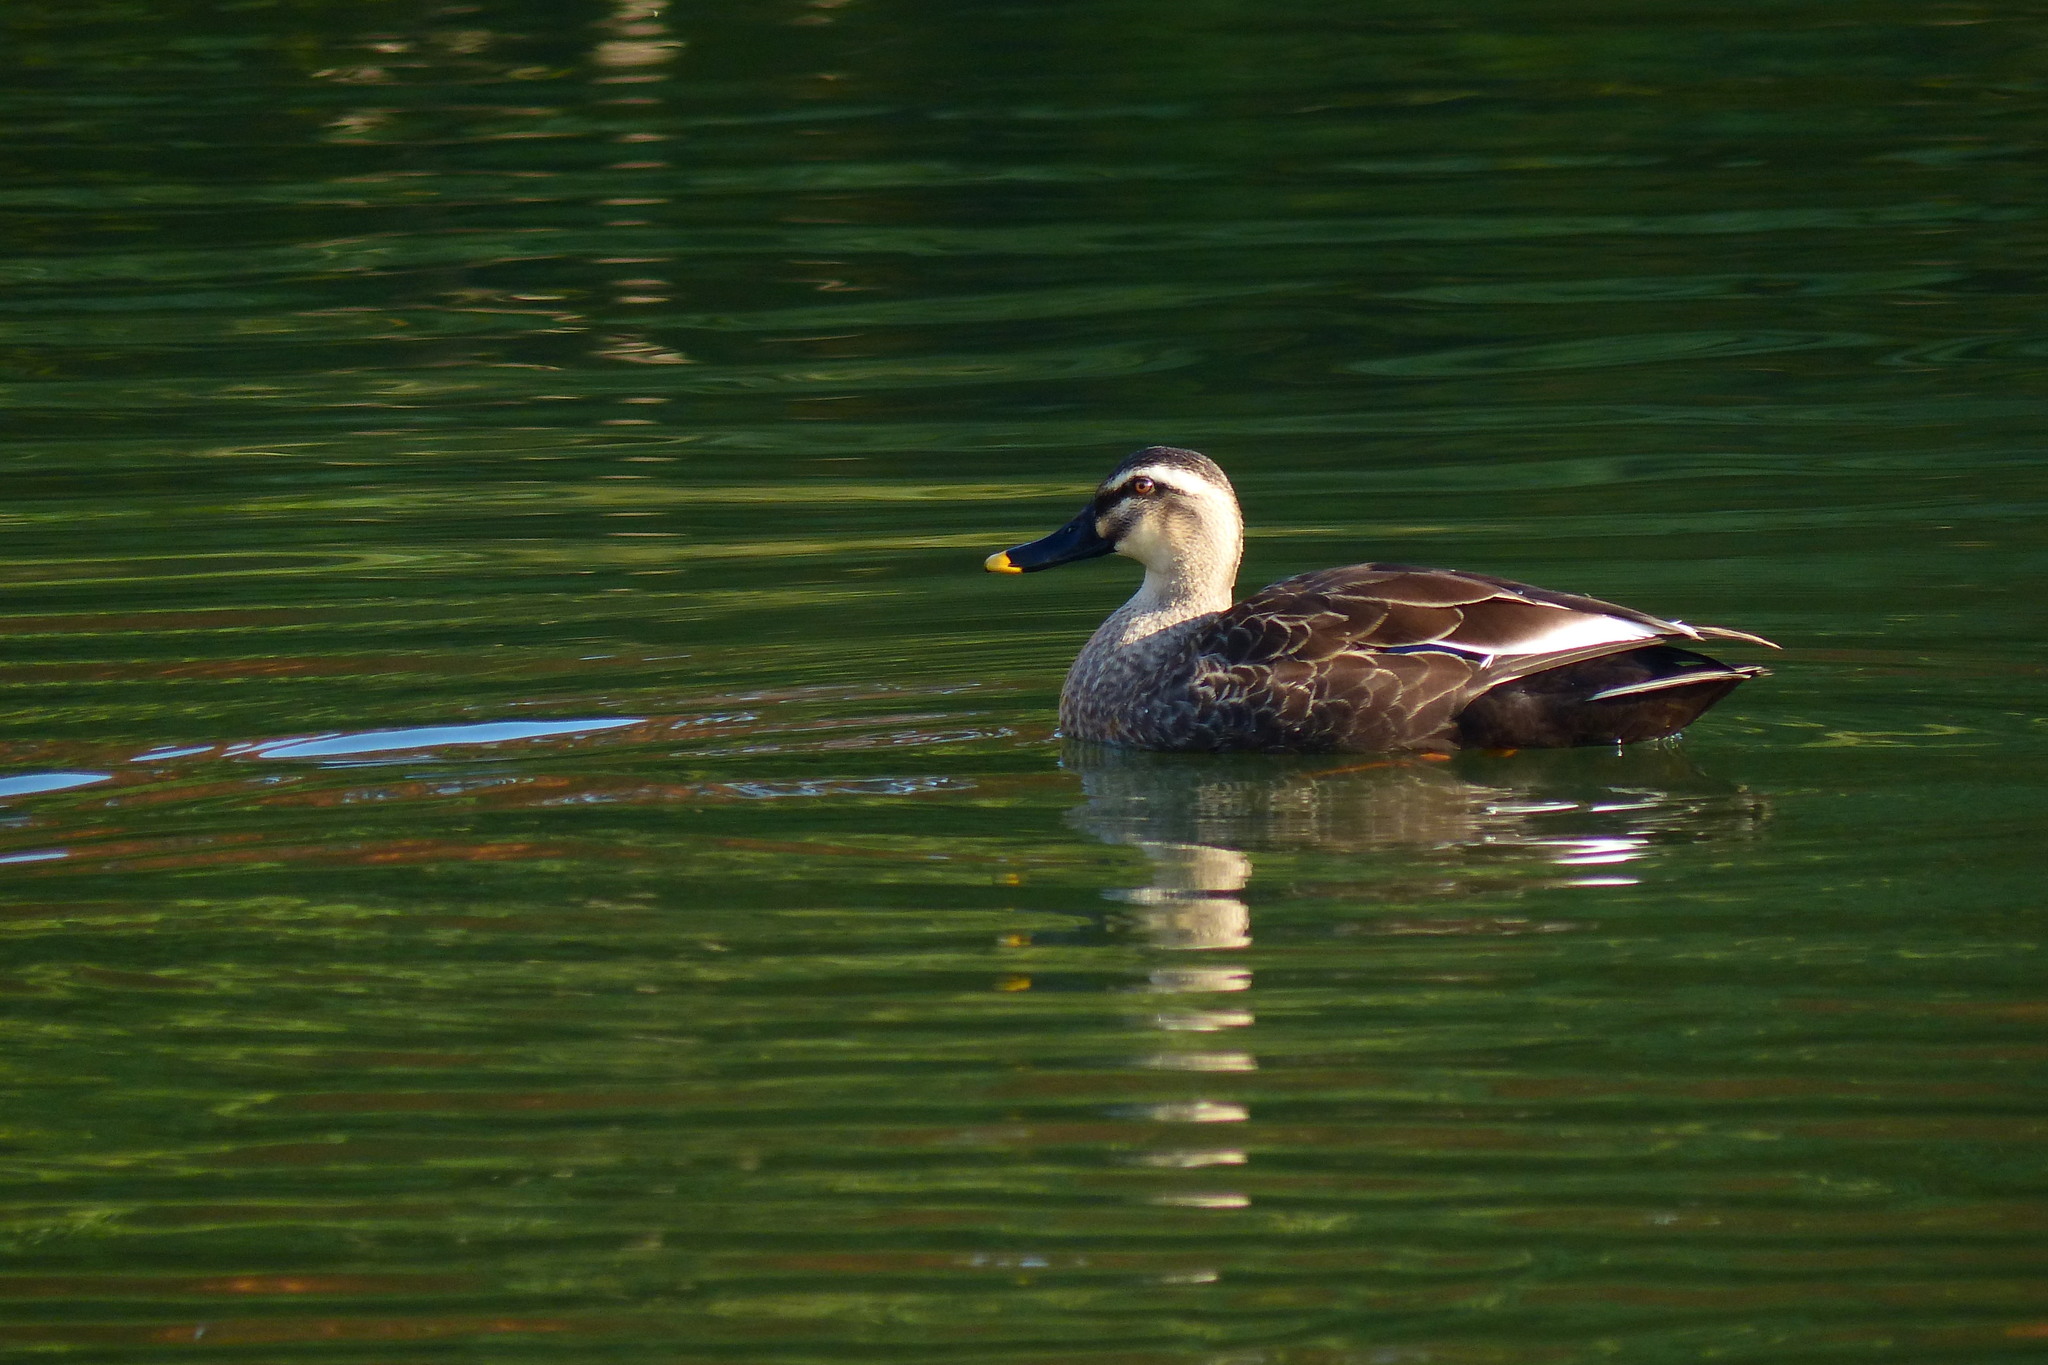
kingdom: Animalia
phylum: Chordata
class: Aves
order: Anseriformes
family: Anatidae
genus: Anas
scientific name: Anas zonorhyncha
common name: Eastern spot-billed duck
